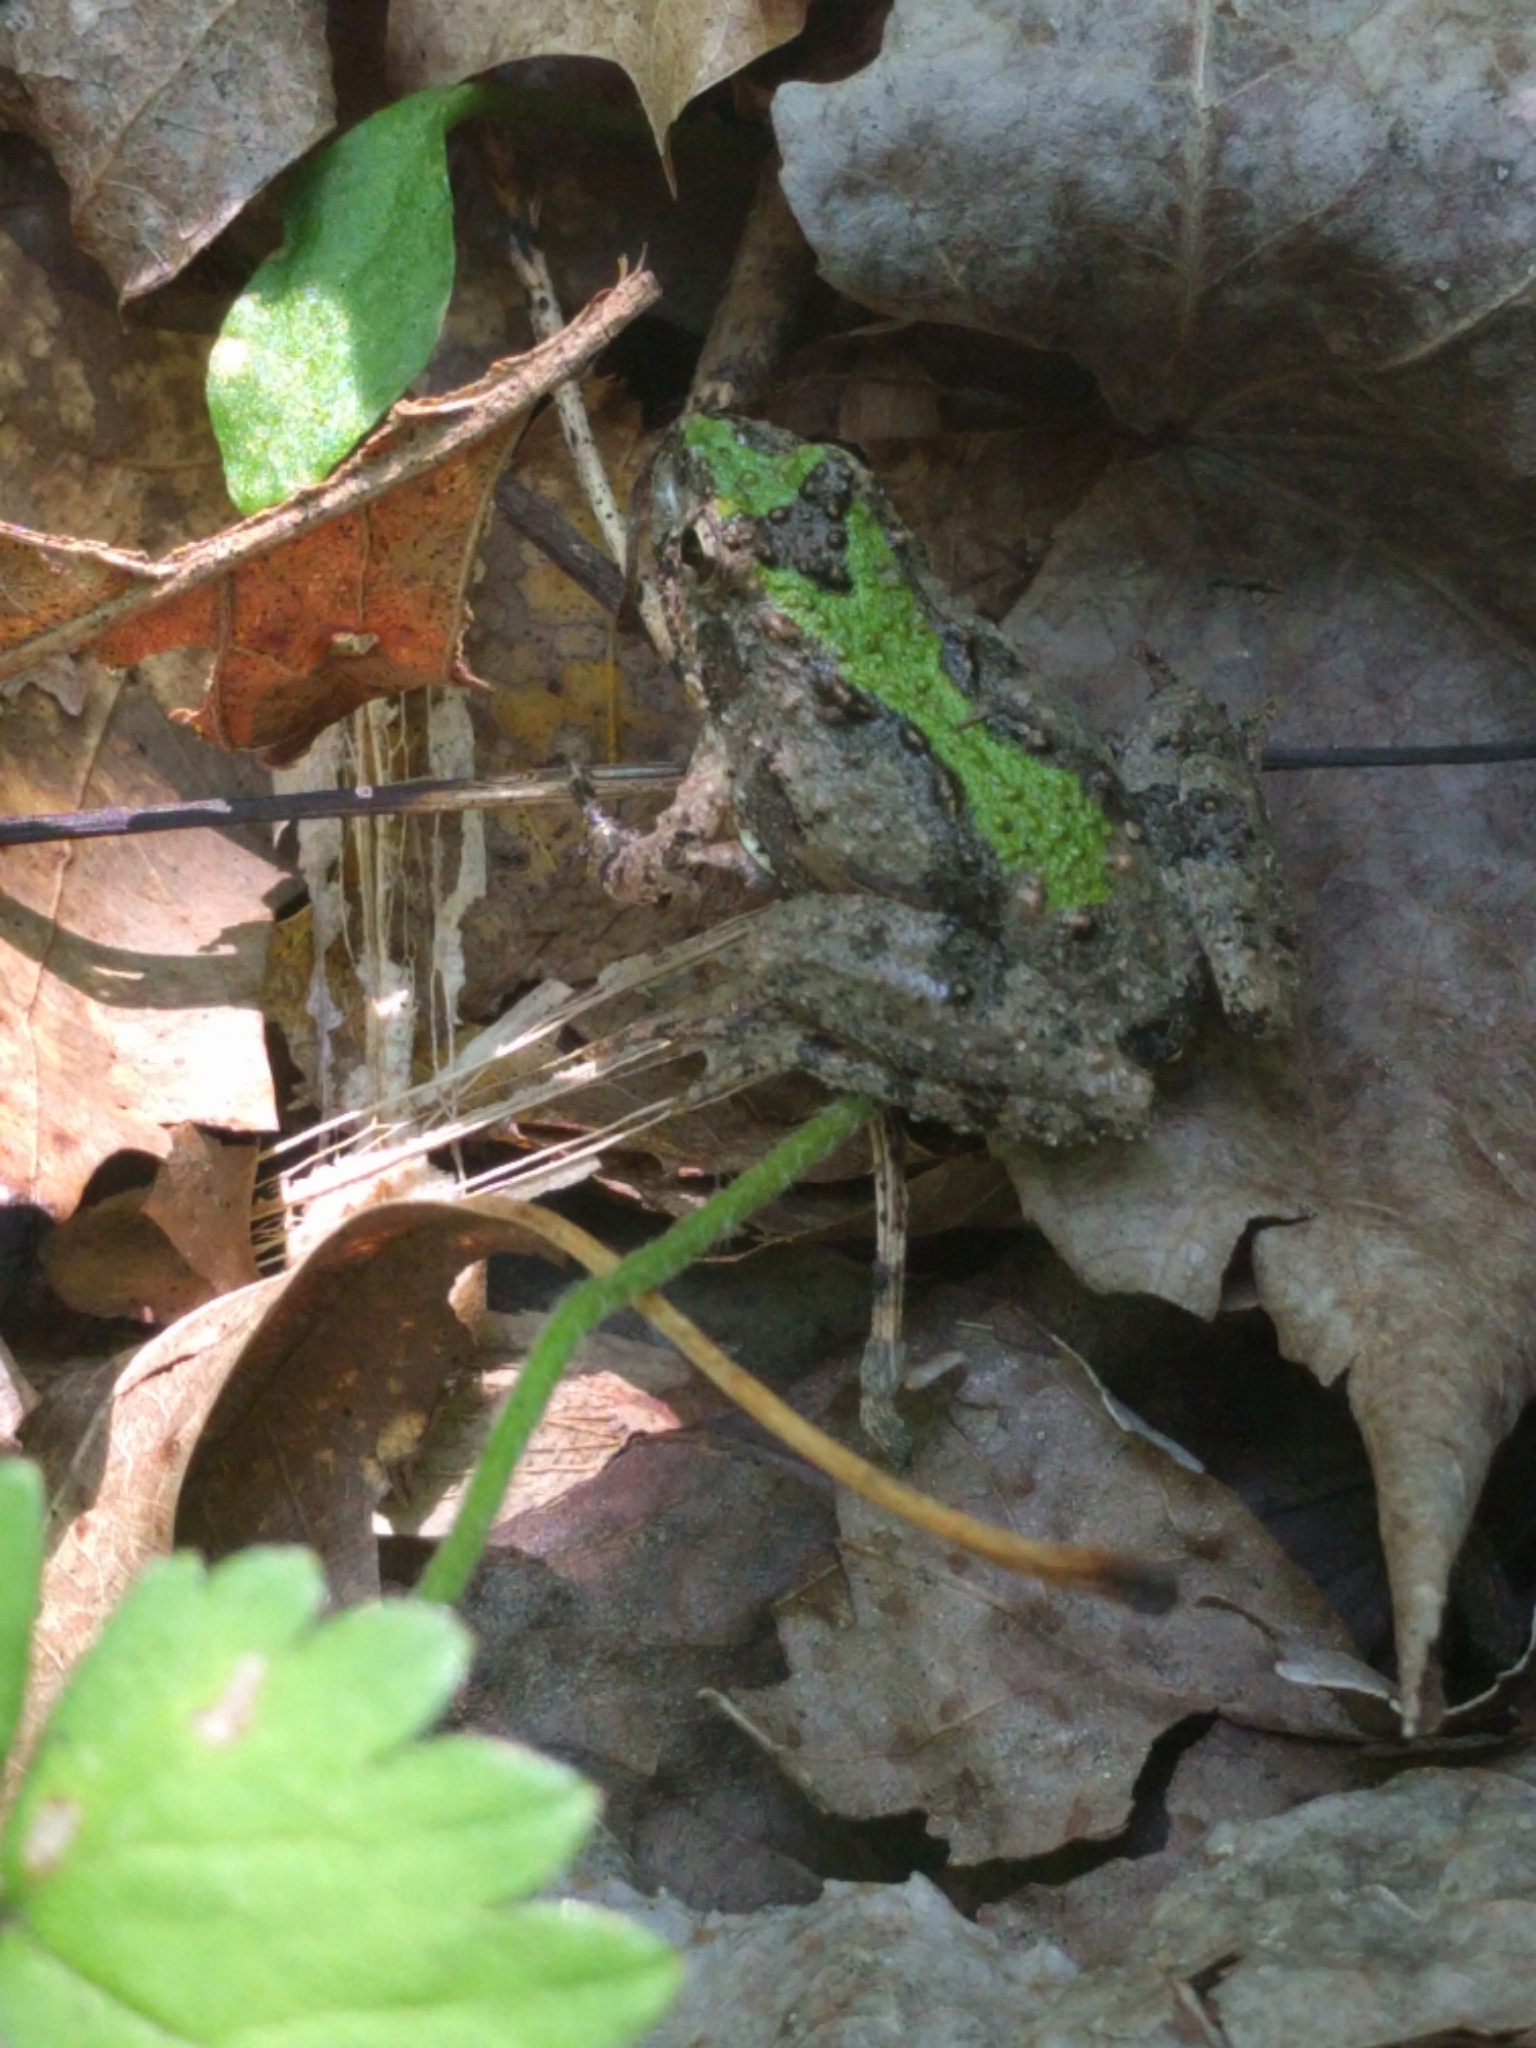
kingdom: Animalia
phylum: Chordata
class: Amphibia
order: Anura
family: Hylidae
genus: Acris
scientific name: Acris crepitans
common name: Northern cricket frog
